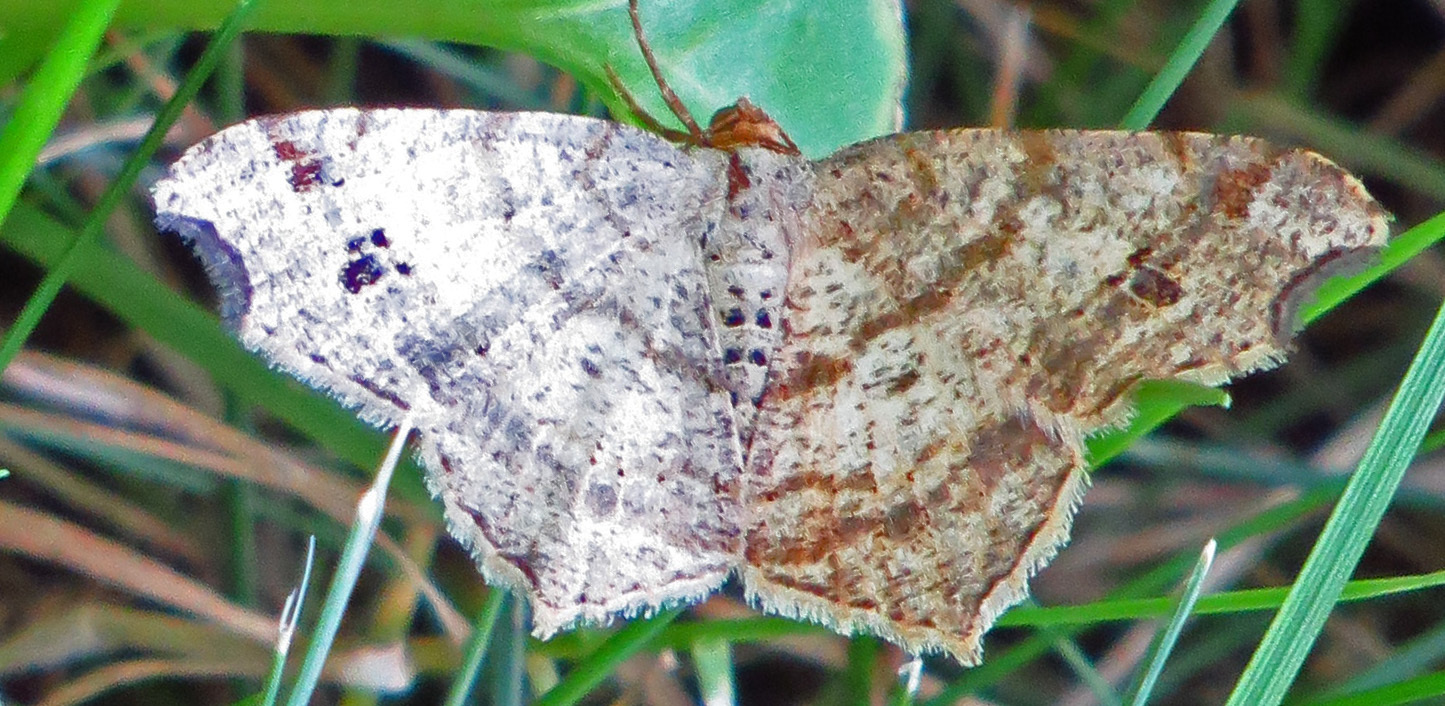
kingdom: Animalia
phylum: Arthropoda
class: Insecta
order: Lepidoptera
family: Geometridae
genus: Macaria
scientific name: Macaria aequiferaria
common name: Common angle
